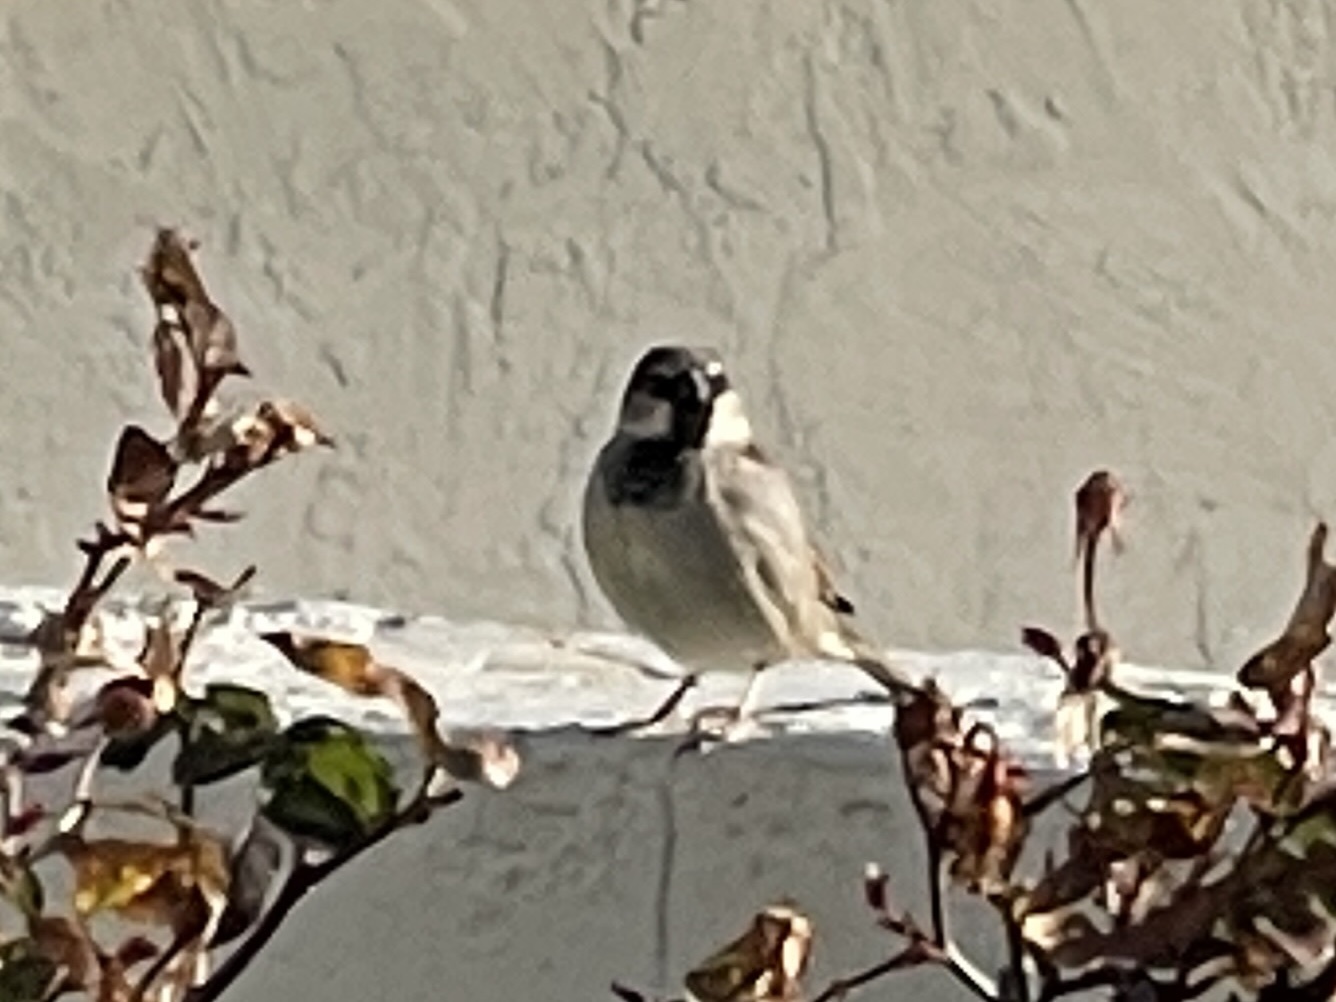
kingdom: Animalia
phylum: Chordata
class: Aves
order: Passeriformes
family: Passeridae
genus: Passer
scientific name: Passer domesticus
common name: House sparrow
